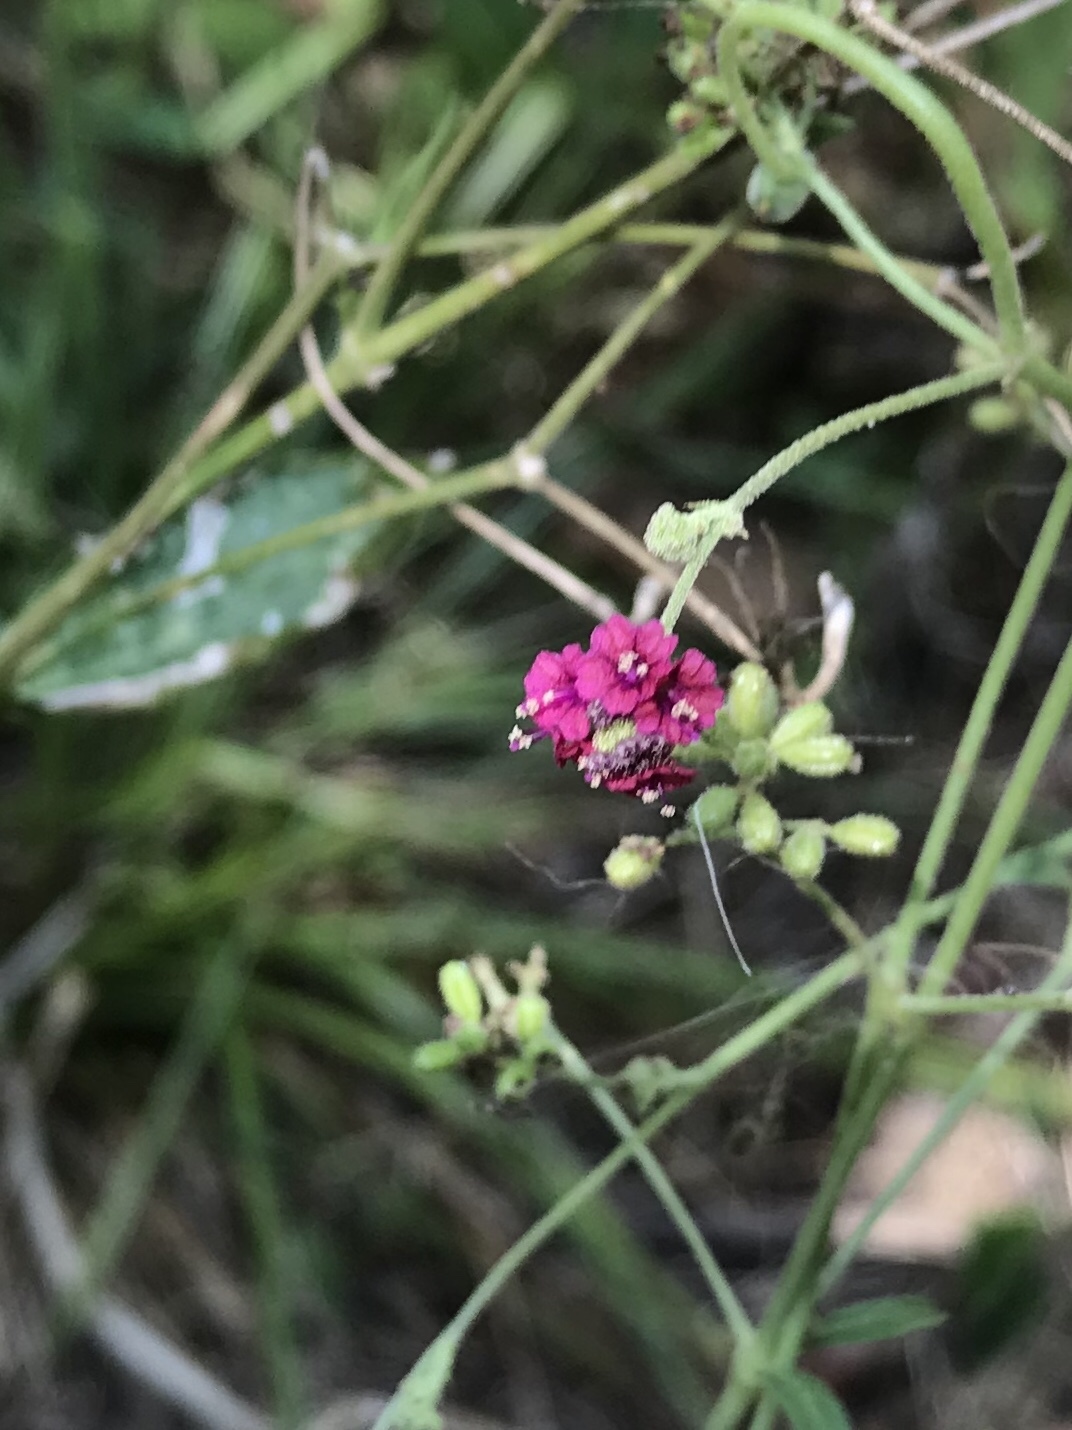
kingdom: Plantae
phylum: Tracheophyta
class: Magnoliopsida
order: Caryophyllales
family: Nyctaginaceae
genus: Boerhavia
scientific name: Boerhavia coccinea
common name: Scarlet spiderling
